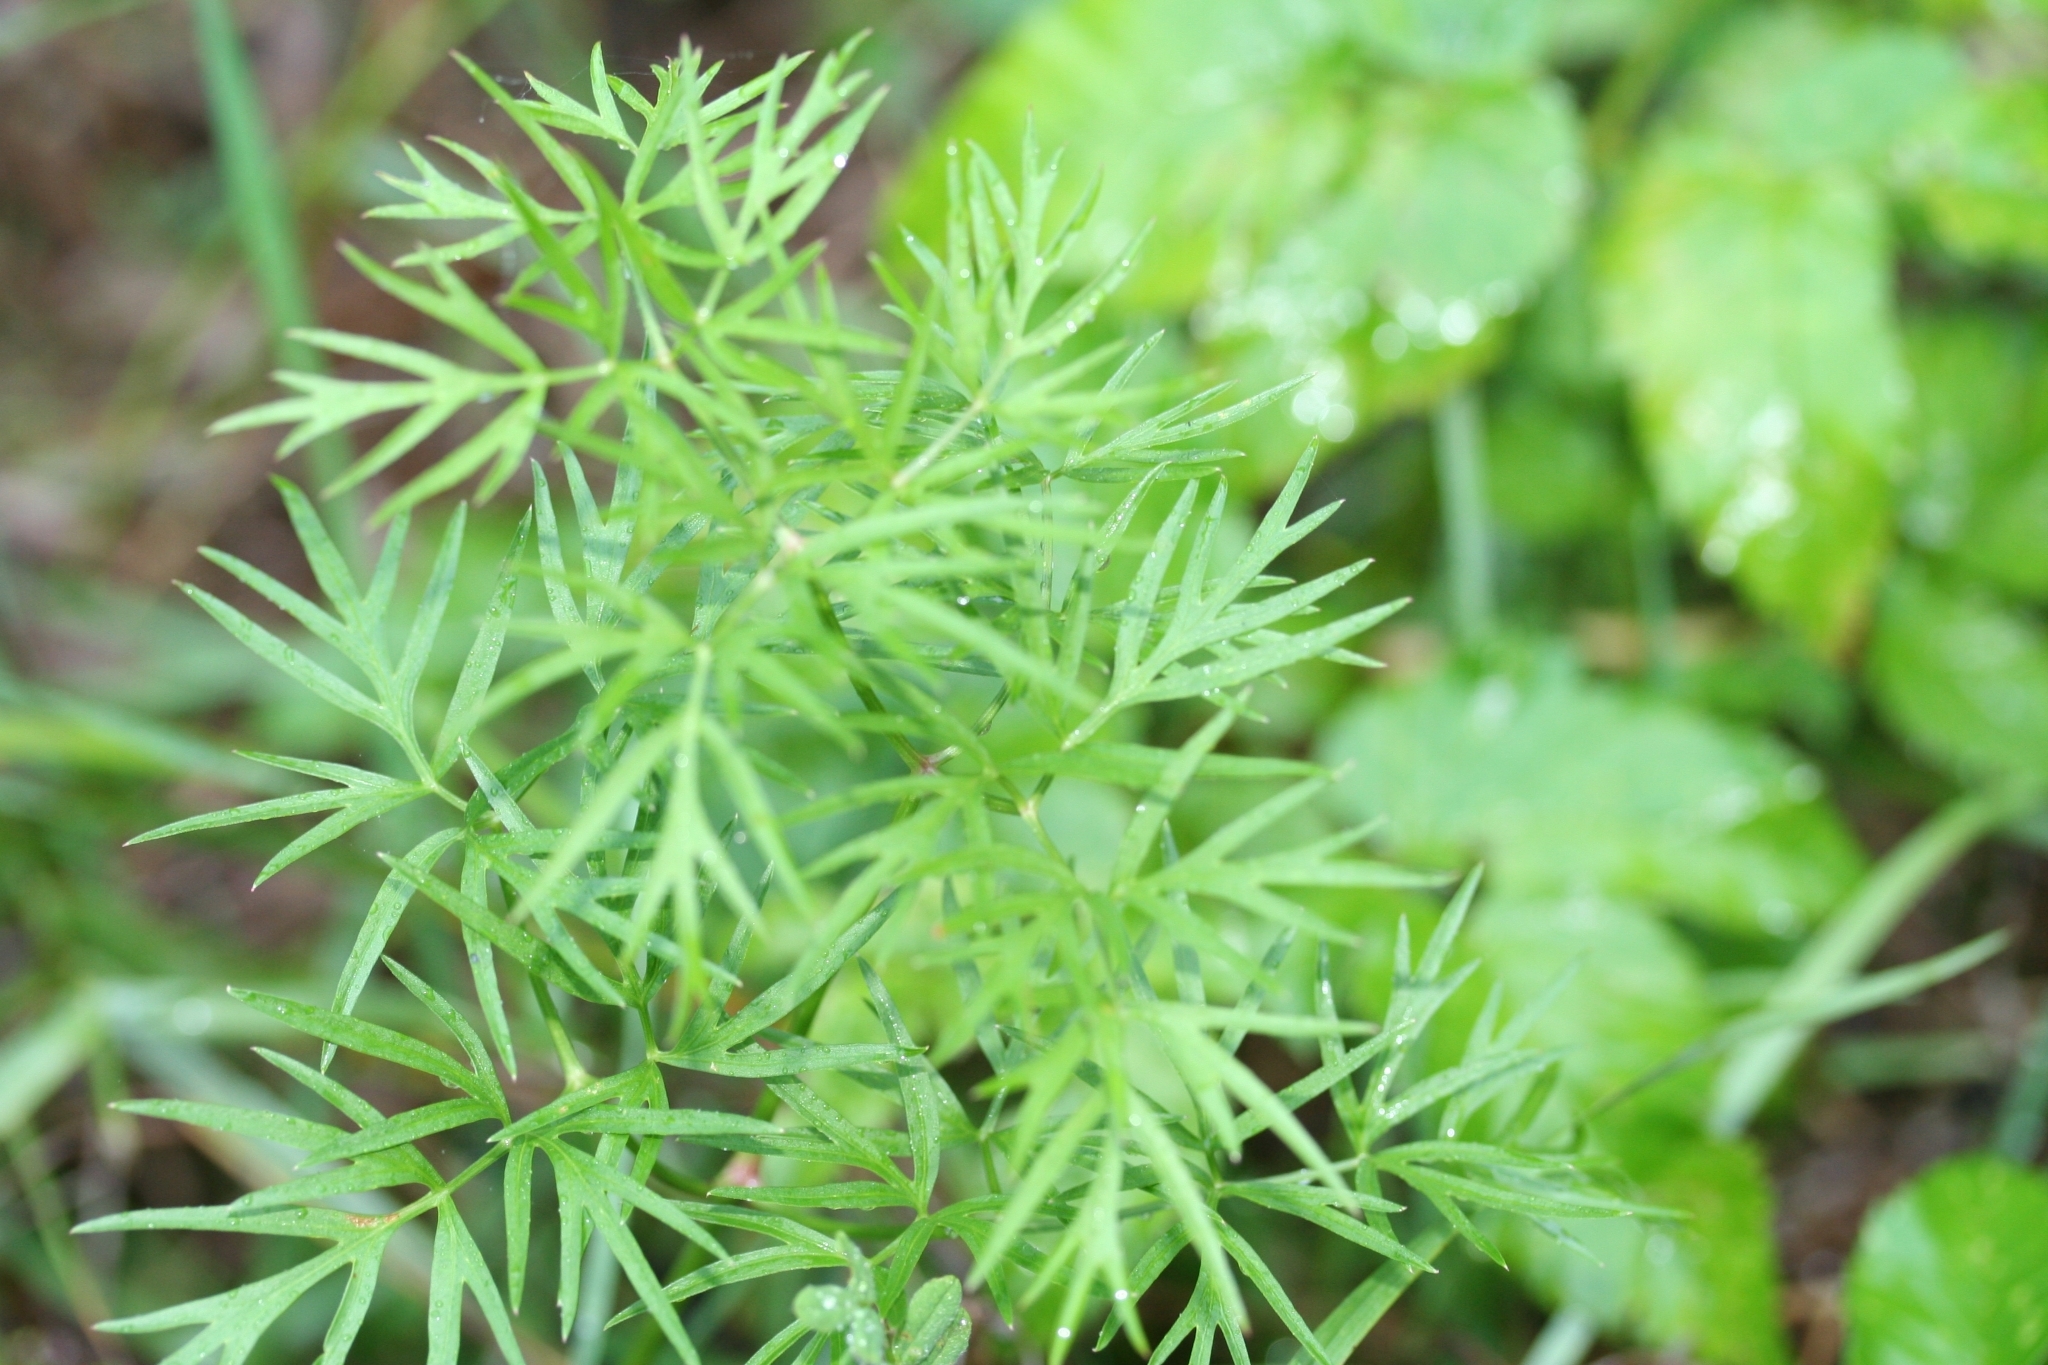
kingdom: Plantae
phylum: Tracheophyta
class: Magnoliopsida
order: Apiales
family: Apiaceae
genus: Cenolophium
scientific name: Cenolophium fischeri
